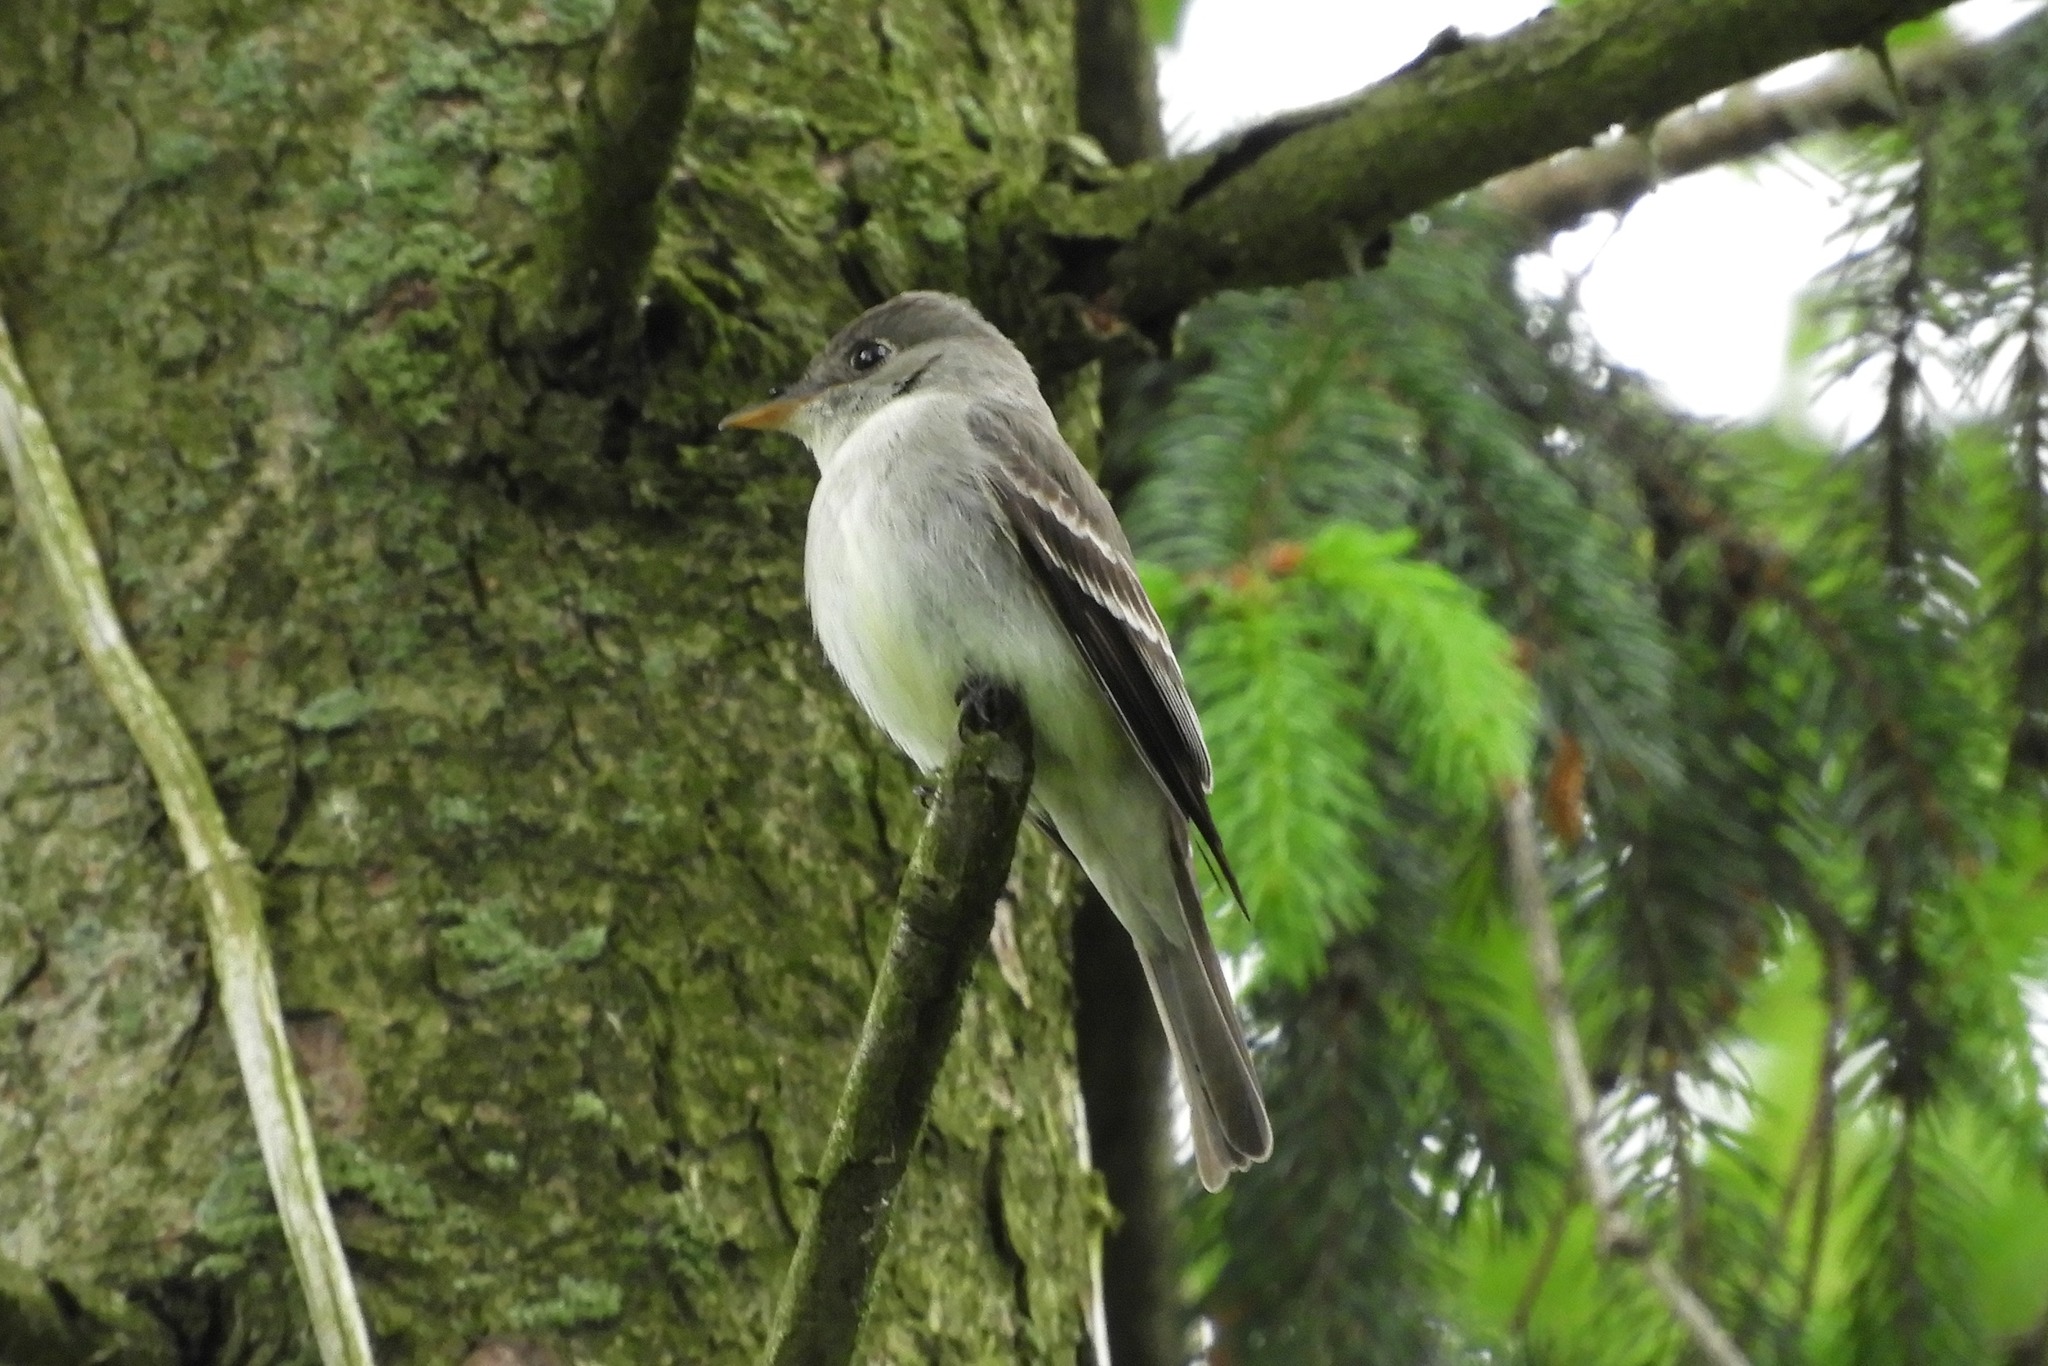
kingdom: Animalia
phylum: Chordata
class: Aves
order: Passeriformes
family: Tyrannidae
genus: Contopus
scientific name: Contopus virens
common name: Eastern wood-pewee
